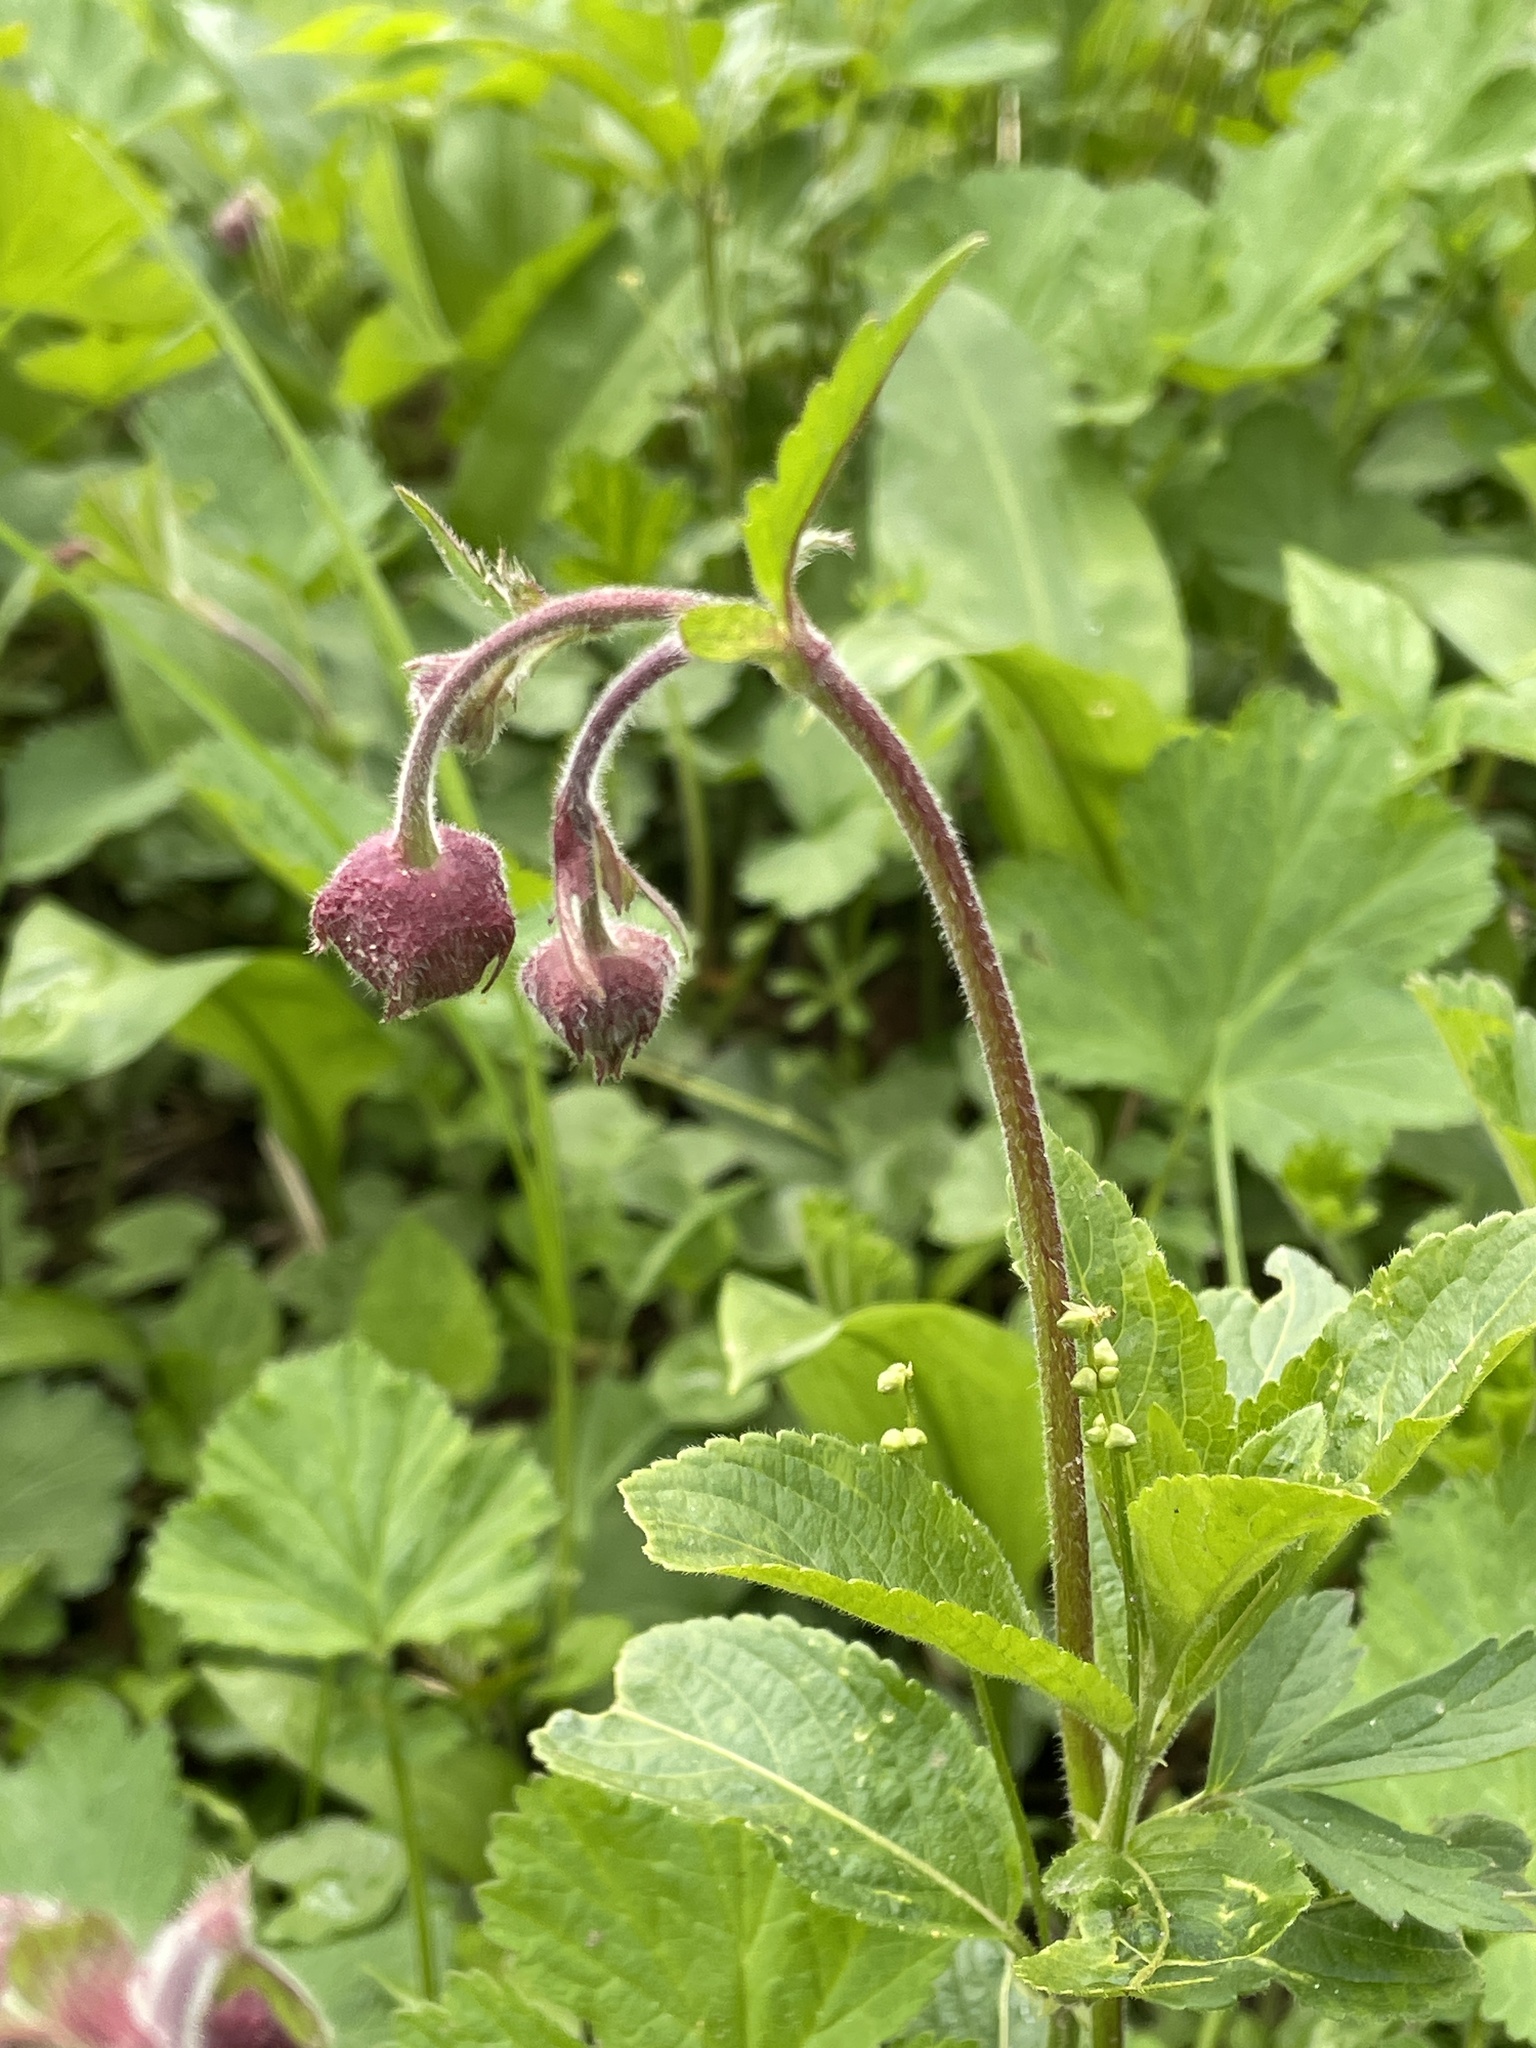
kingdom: Plantae
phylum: Tracheophyta
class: Magnoliopsida
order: Rosales
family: Rosaceae
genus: Geum
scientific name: Geum rivale
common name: Water avens
